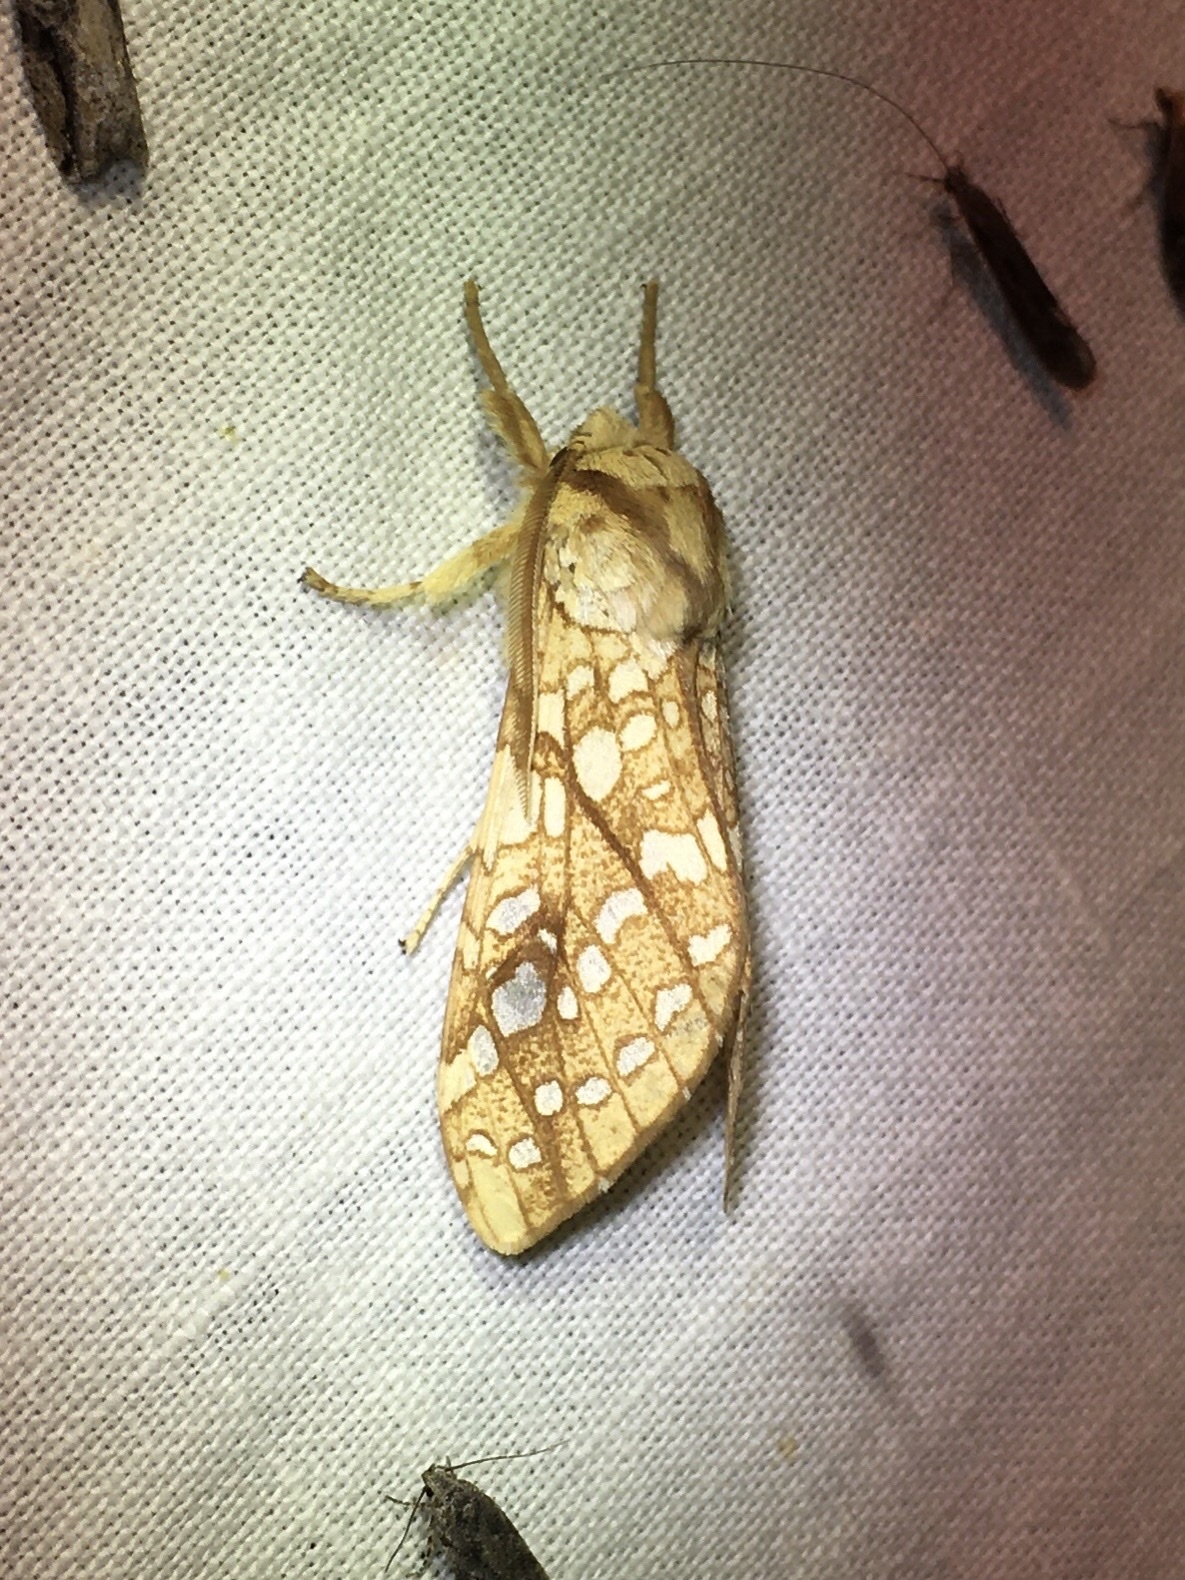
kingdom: Animalia
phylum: Arthropoda
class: Insecta
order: Lepidoptera
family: Erebidae
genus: Lophocampa
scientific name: Lophocampa caryae
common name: Hickory tussock moth
